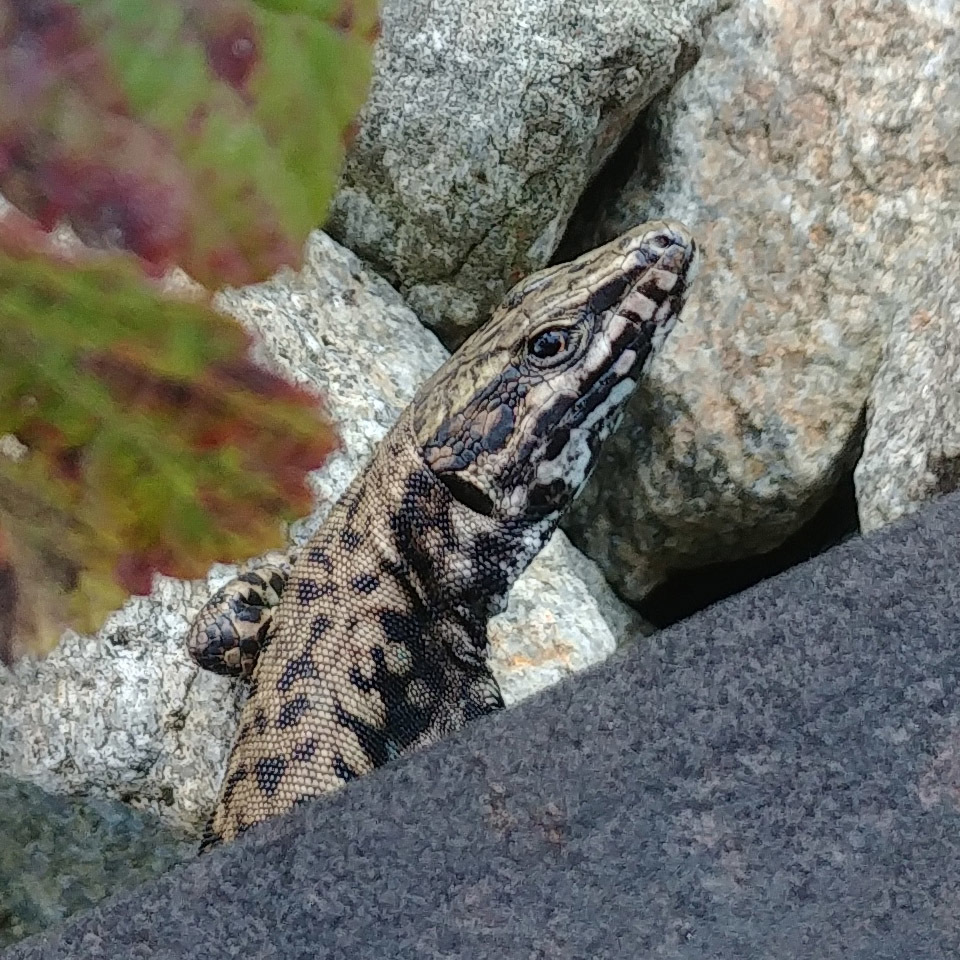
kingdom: Animalia
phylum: Chordata
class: Squamata
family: Lacertidae
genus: Podarcis
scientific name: Podarcis muralis
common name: Common wall lizard
